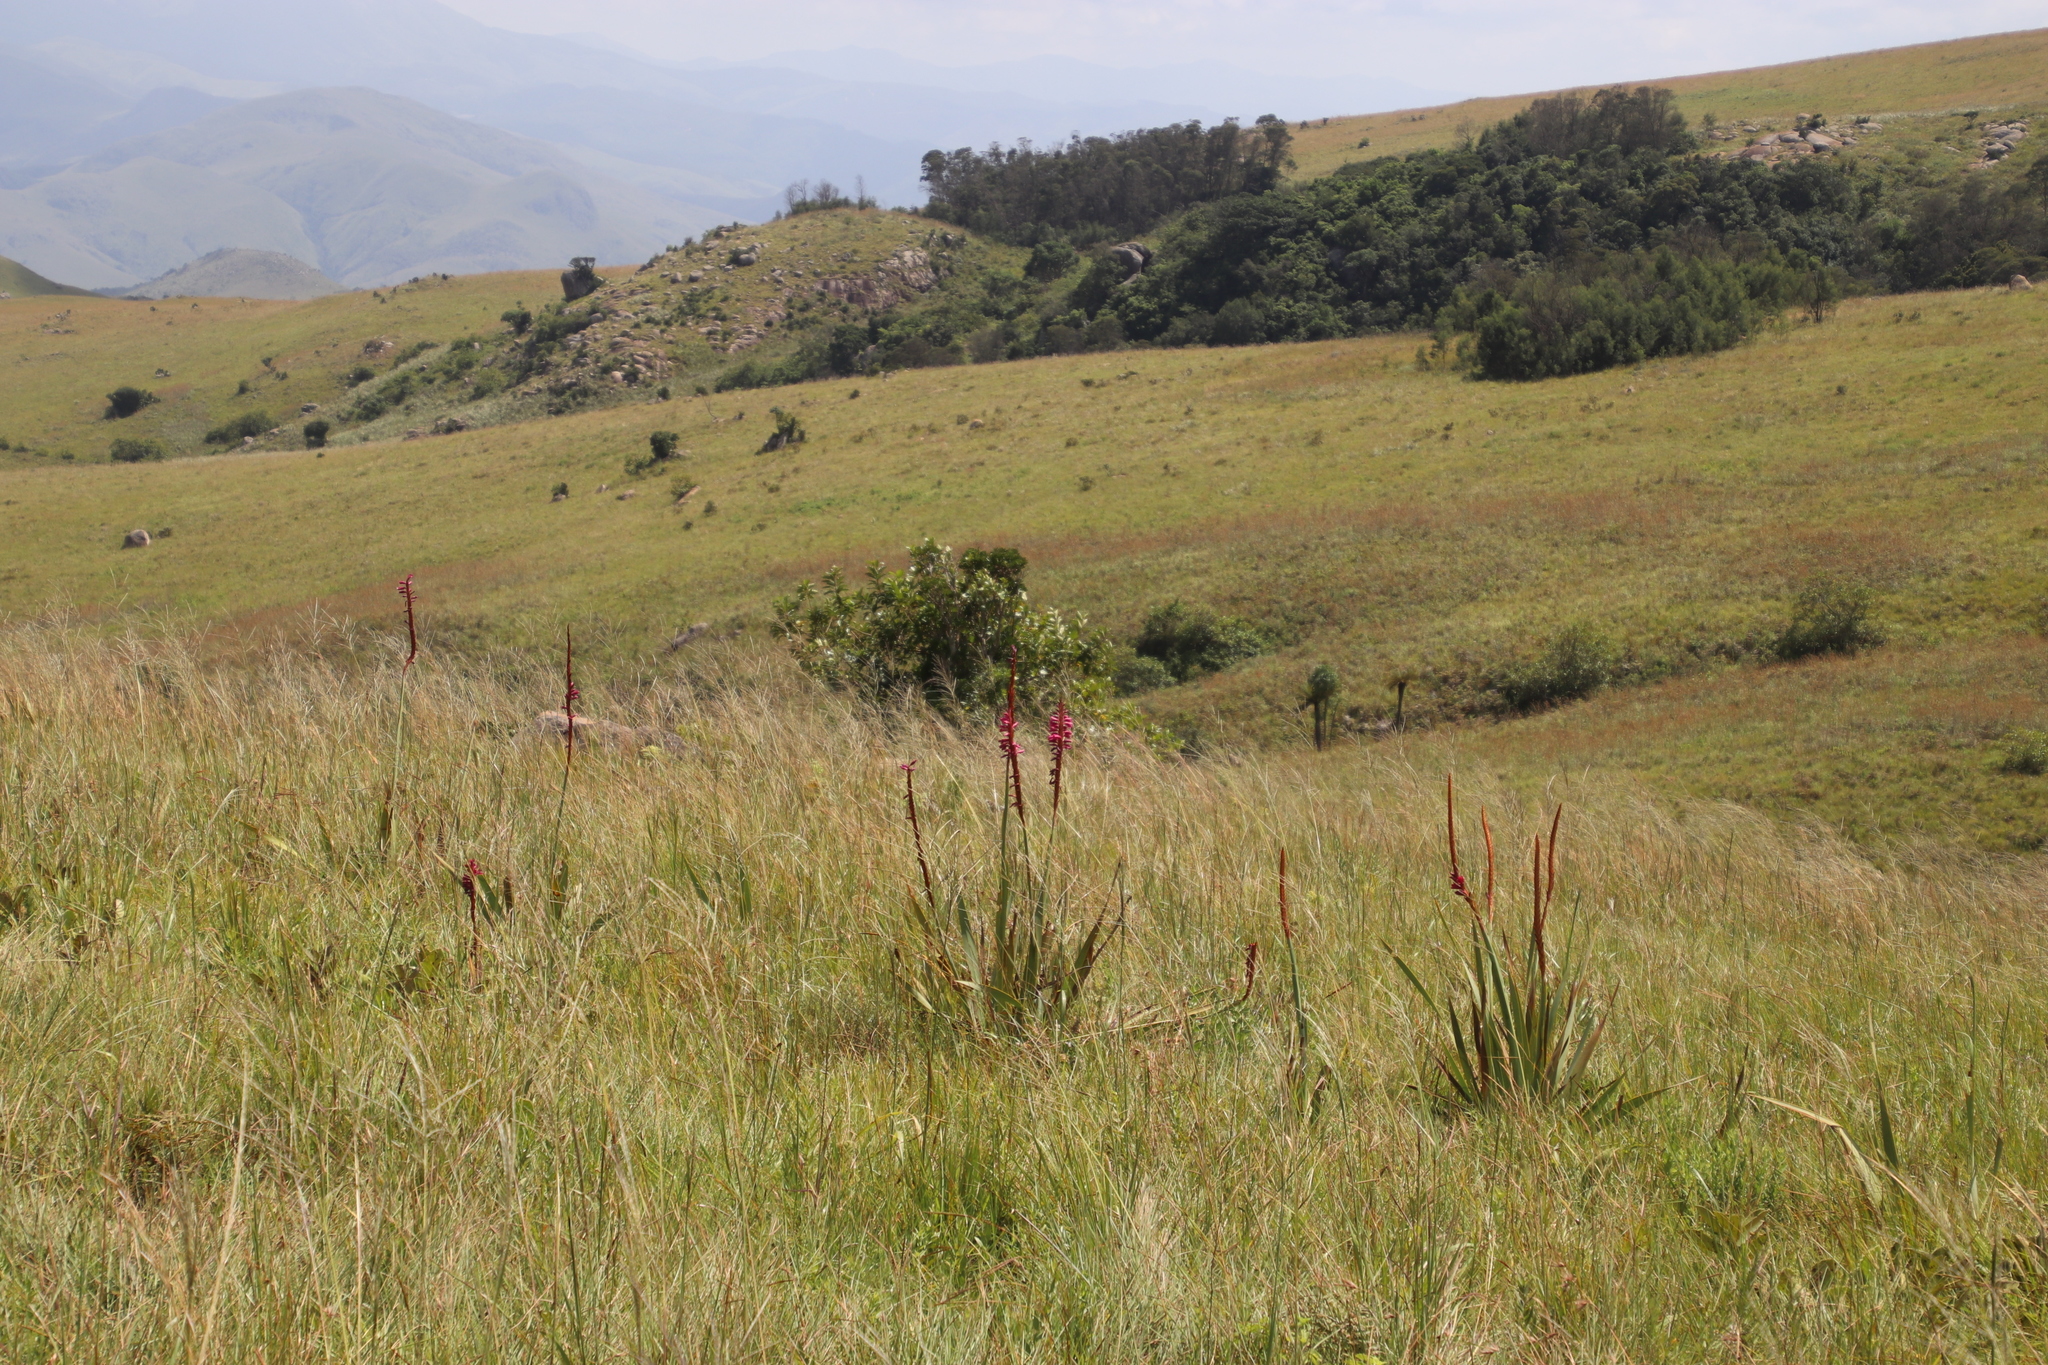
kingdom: Plantae
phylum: Tracheophyta
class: Liliopsida
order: Asparagales
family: Iridaceae
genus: Watsonia
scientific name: Watsonia pulchra
